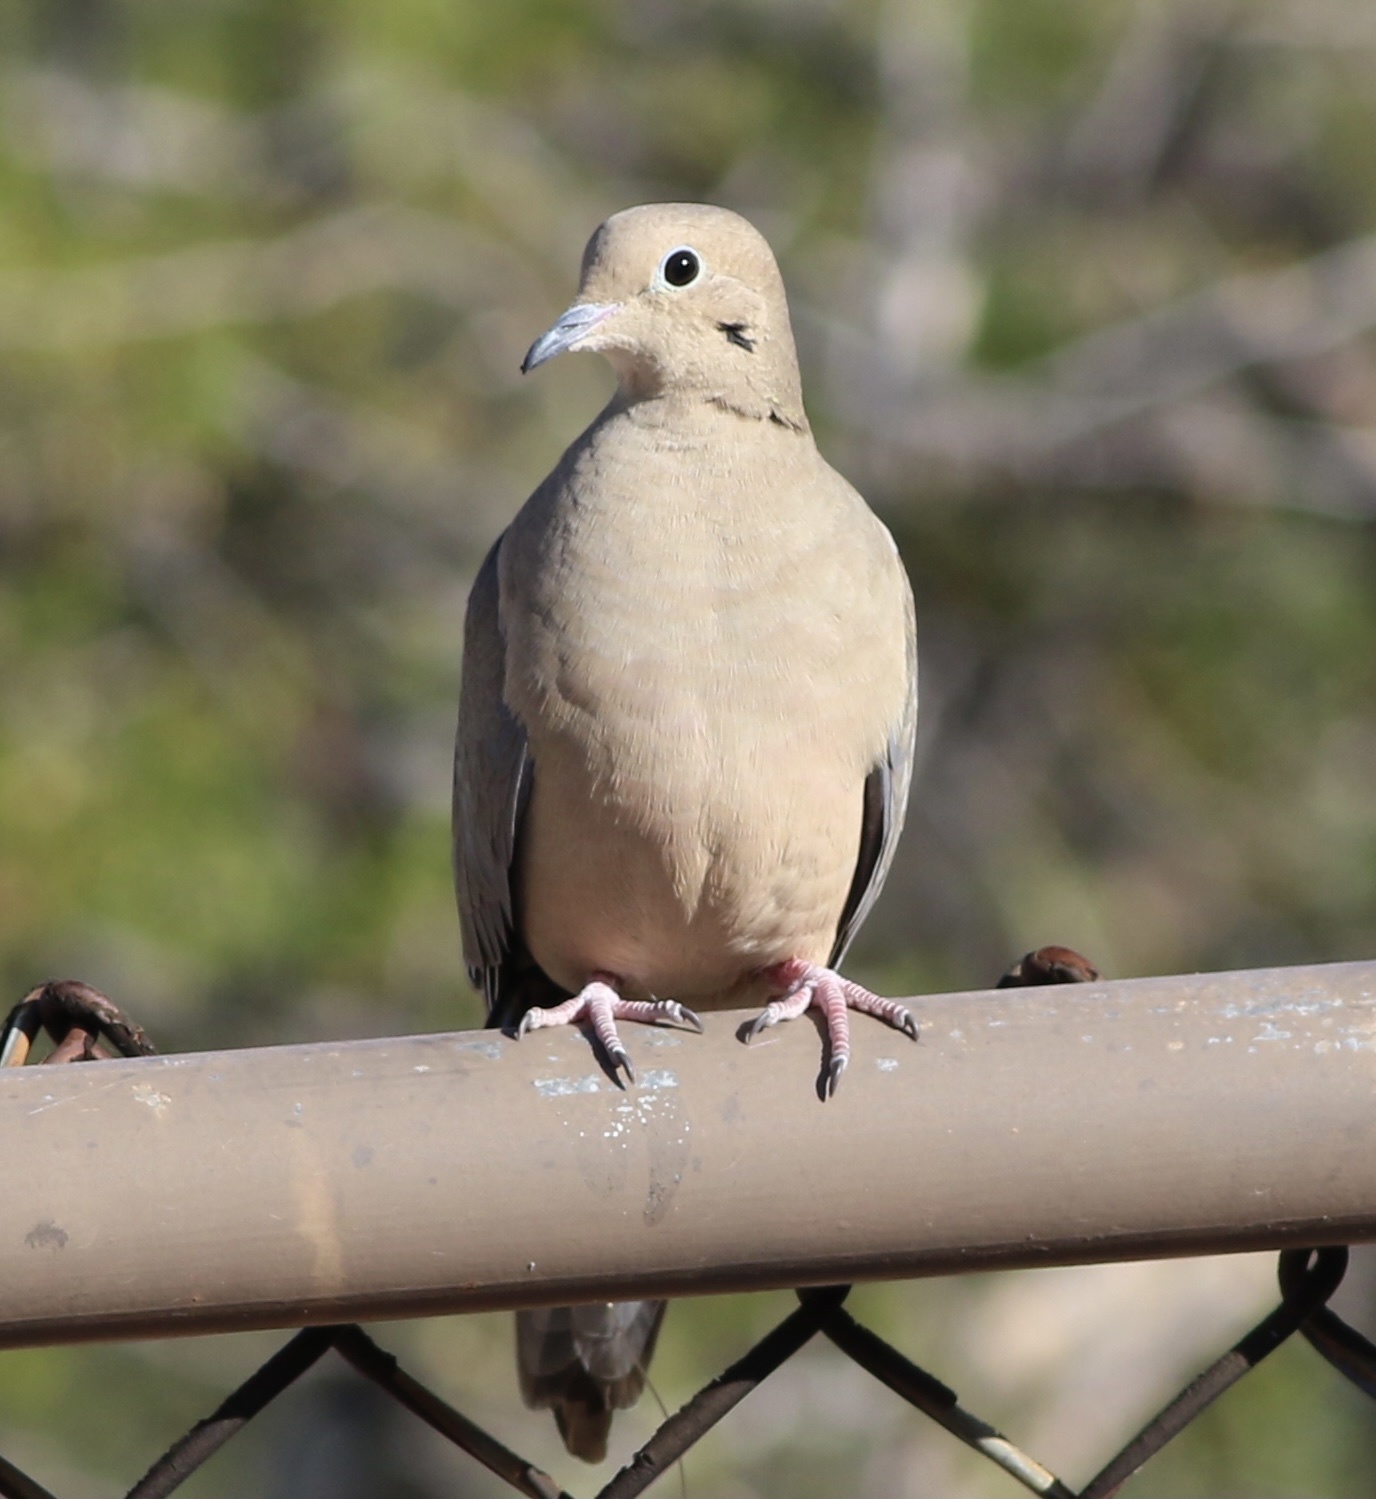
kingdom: Animalia
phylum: Chordata
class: Aves
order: Columbiformes
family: Columbidae
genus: Zenaida
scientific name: Zenaida macroura
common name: Mourning dove
